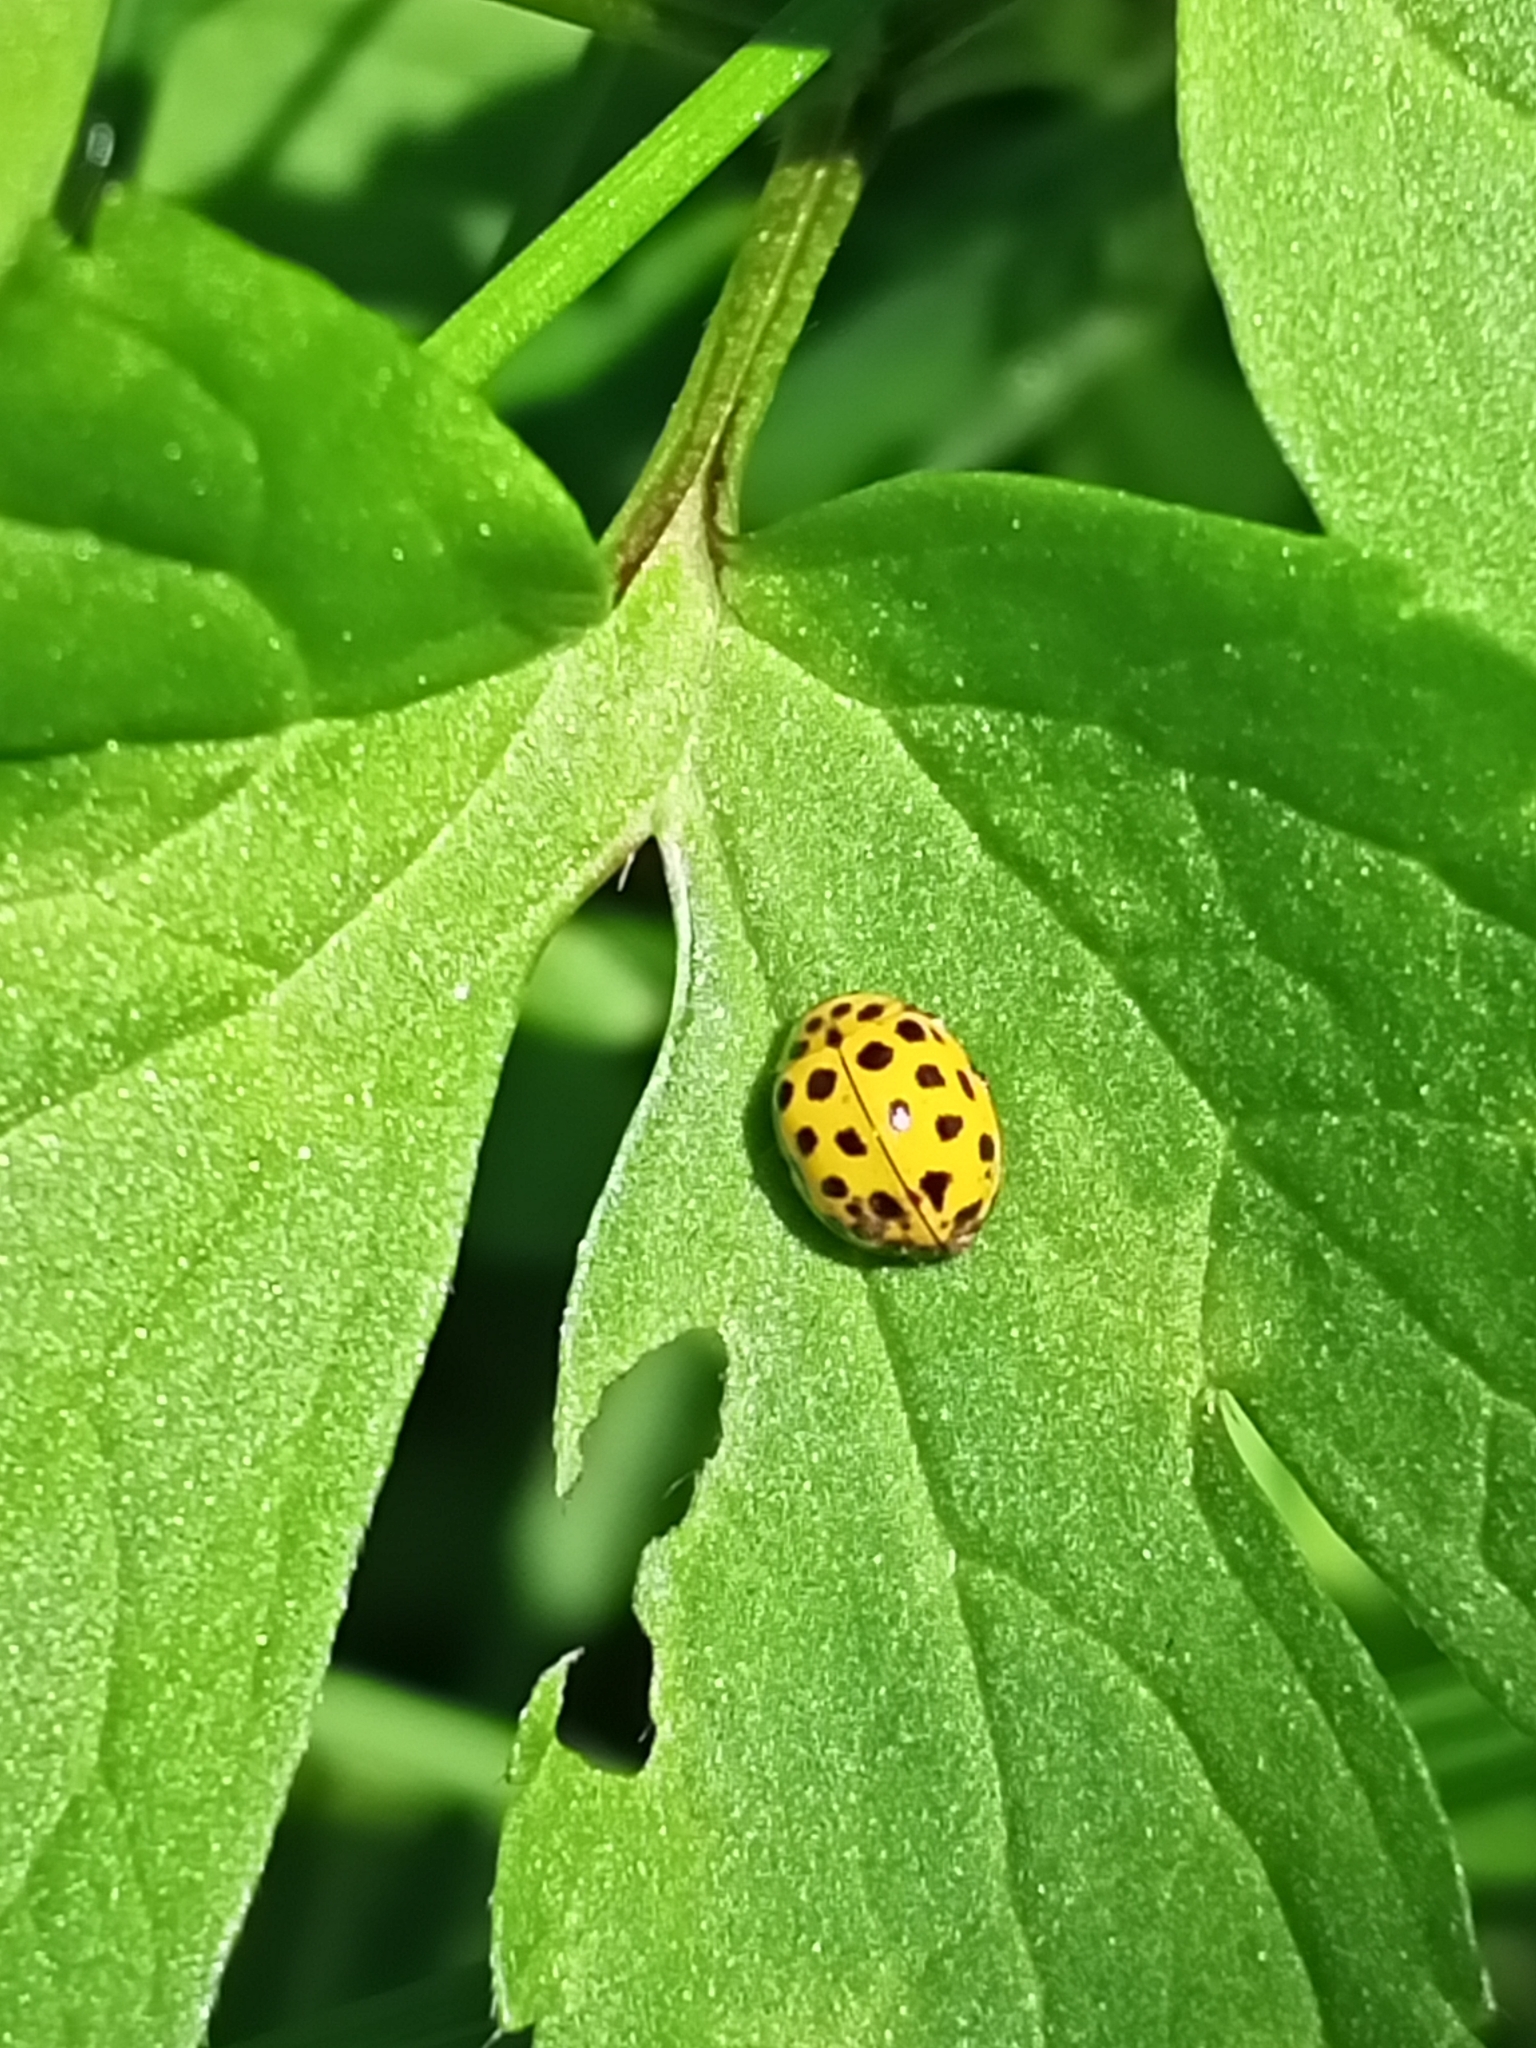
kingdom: Animalia
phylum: Arthropoda
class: Insecta
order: Coleoptera
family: Coccinellidae
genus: Psyllobora
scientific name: Psyllobora vigintiduopunctata
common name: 22-spot ladybird
